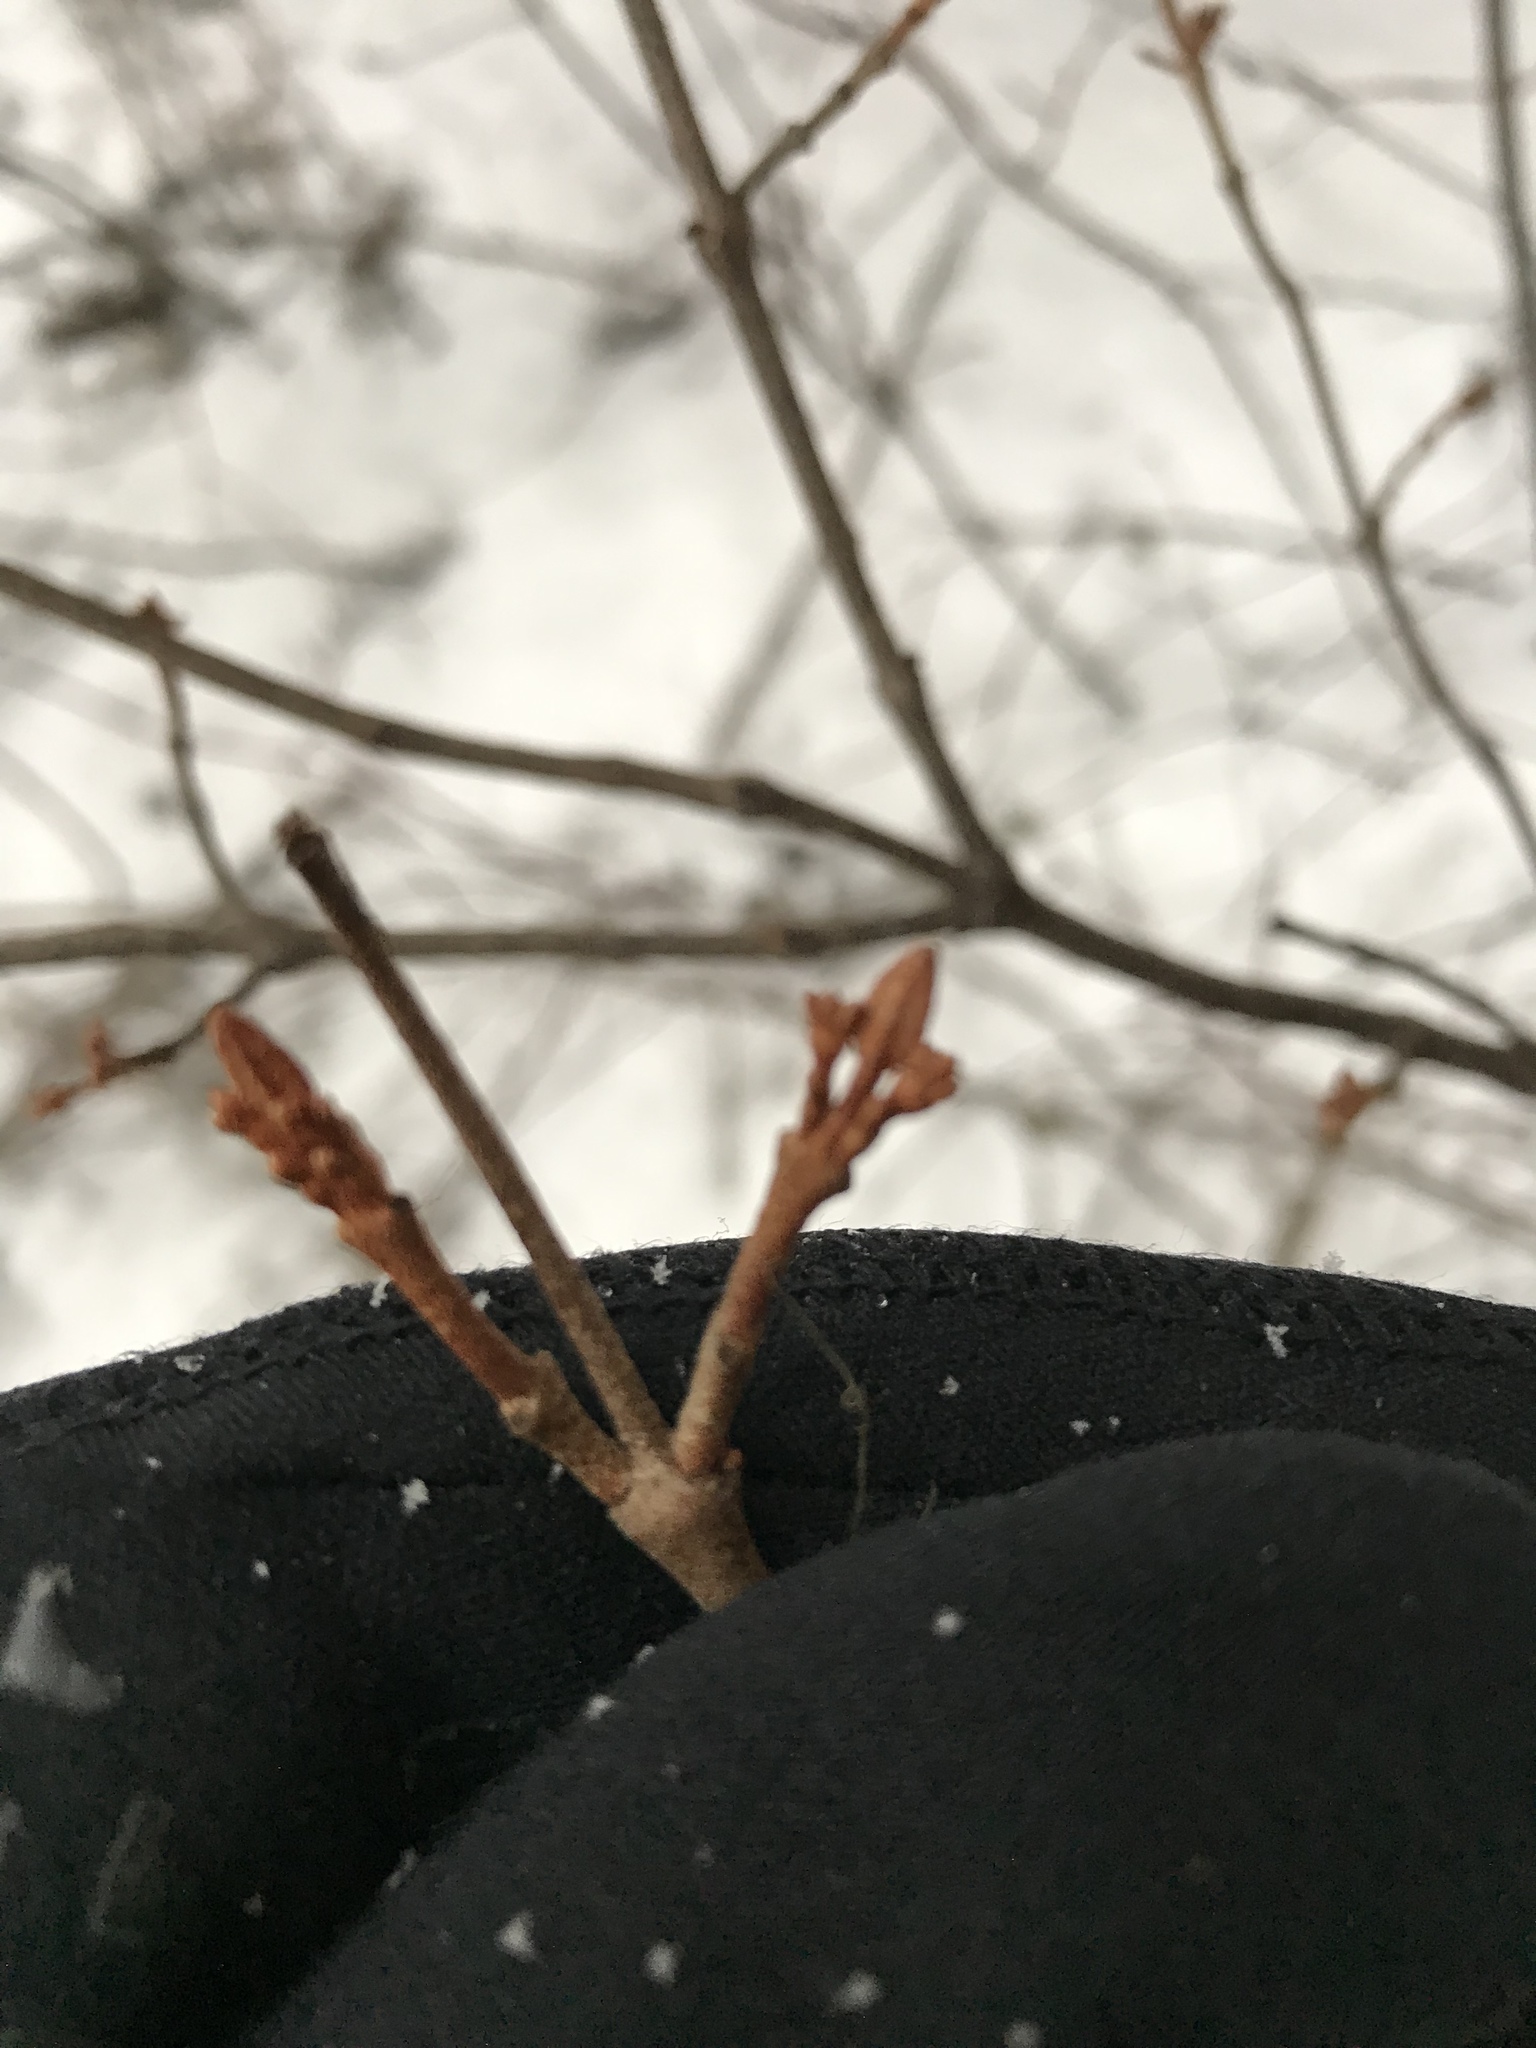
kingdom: Plantae
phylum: Tracheophyta
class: Magnoliopsida
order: Rosales
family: Elaeagnaceae
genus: Shepherdia
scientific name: Shepherdia canadensis
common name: Soapberry
